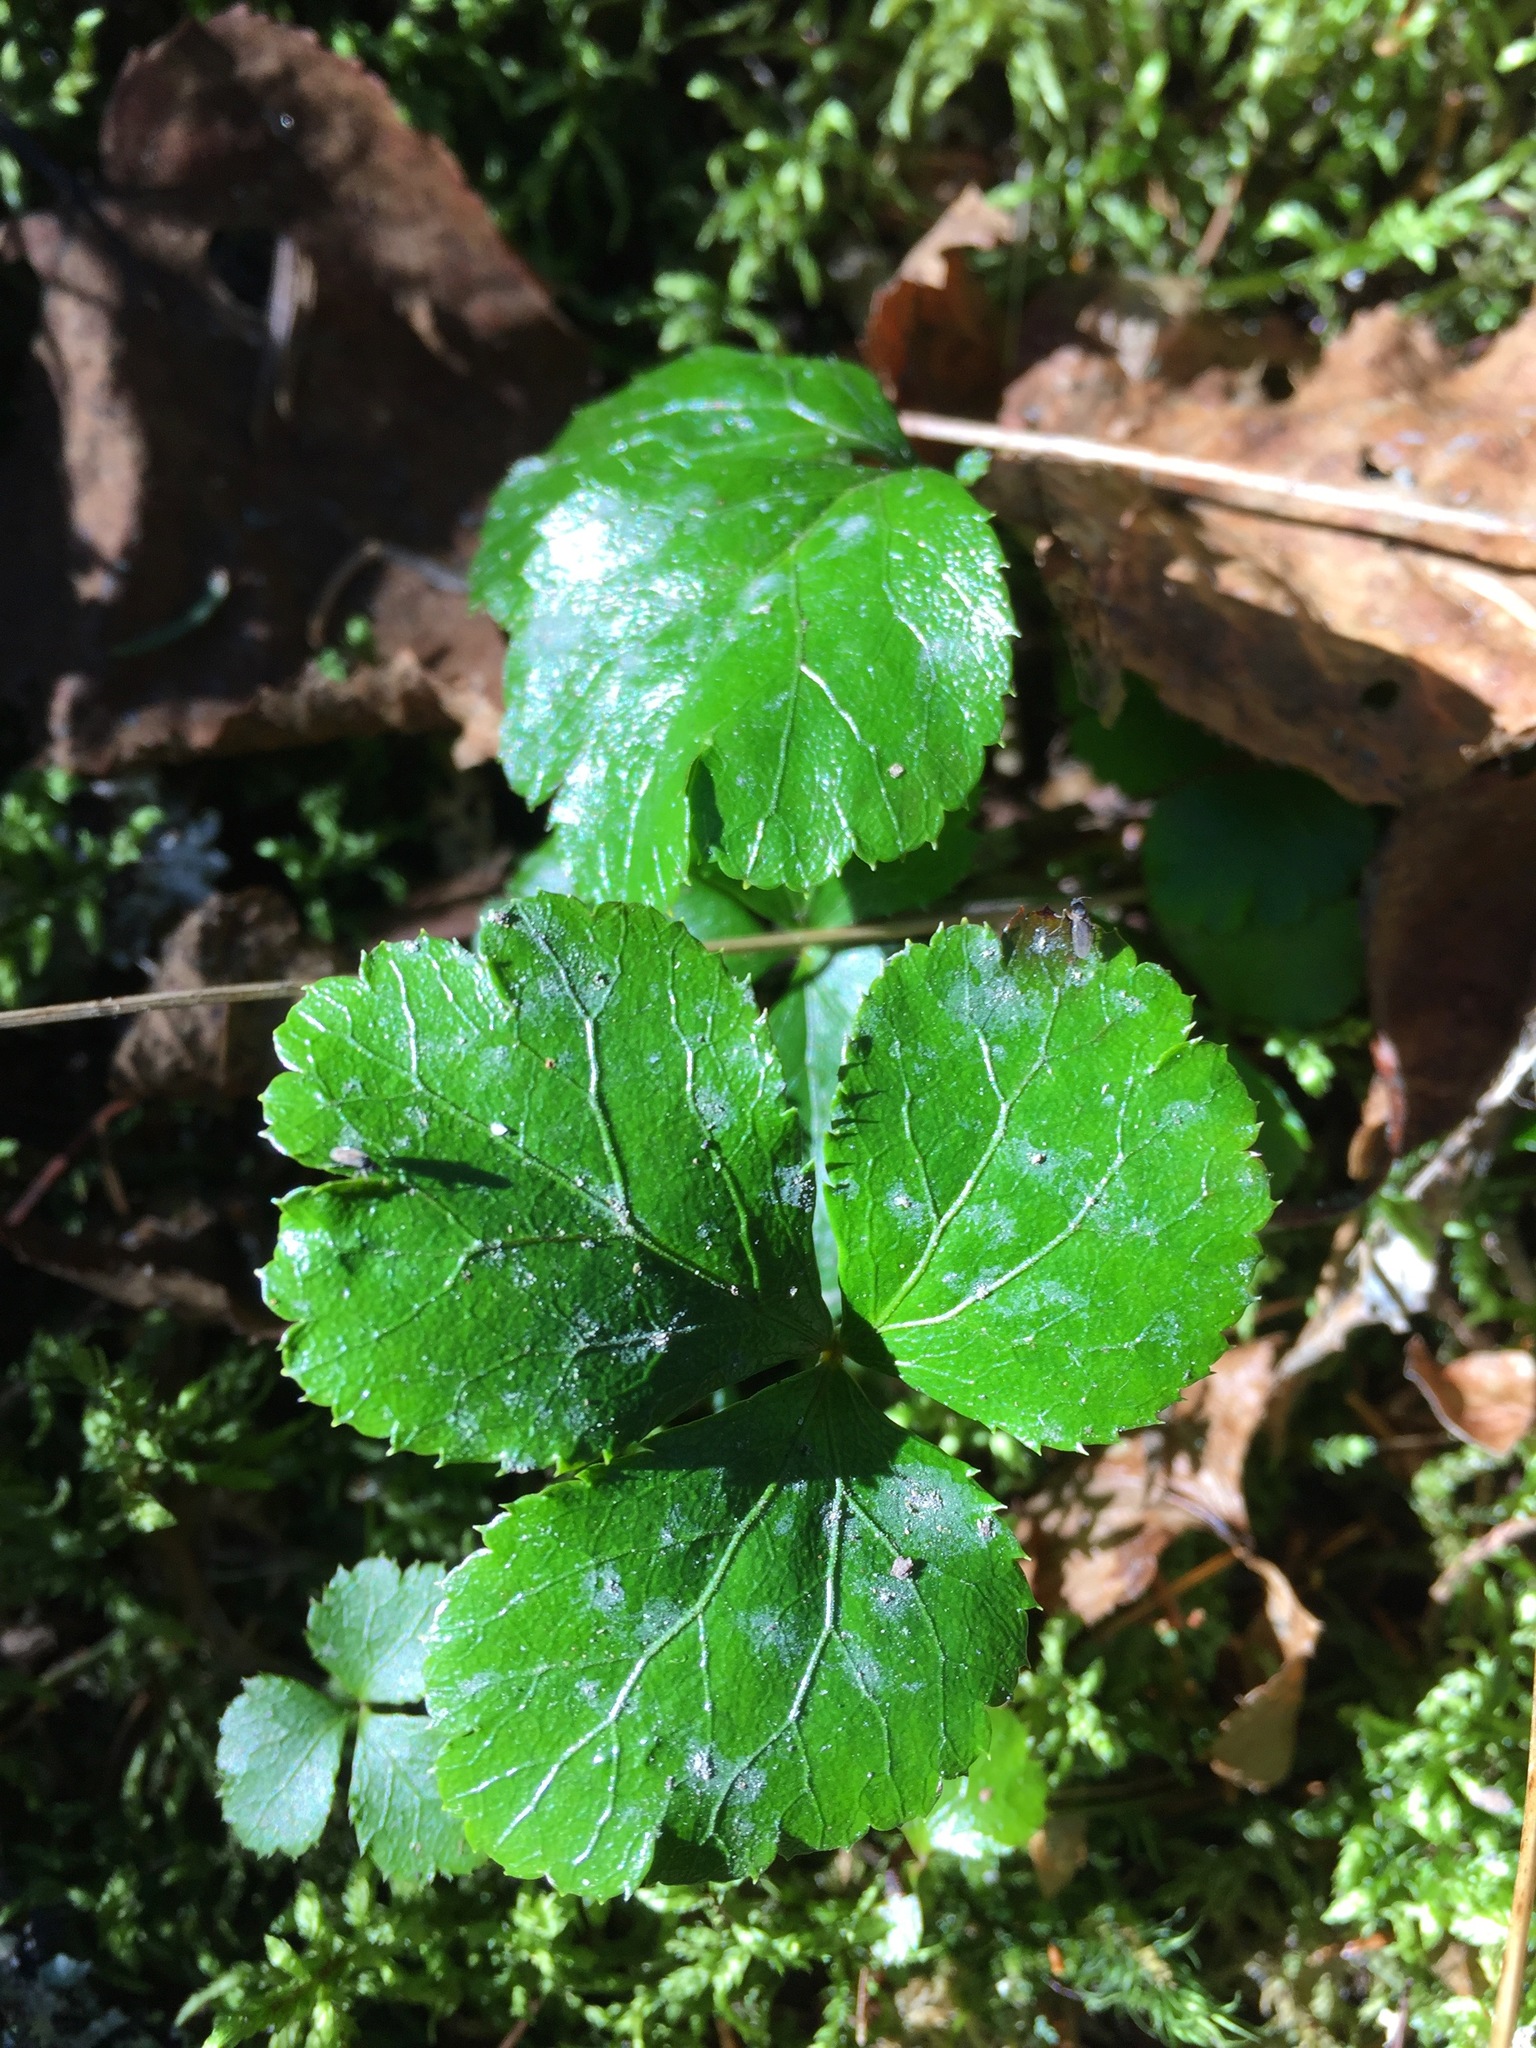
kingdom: Plantae
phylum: Tracheophyta
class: Magnoliopsida
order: Ranunculales
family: Ranunculaceae
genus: Coptis
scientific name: Coptis trifolia
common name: Canker-root
